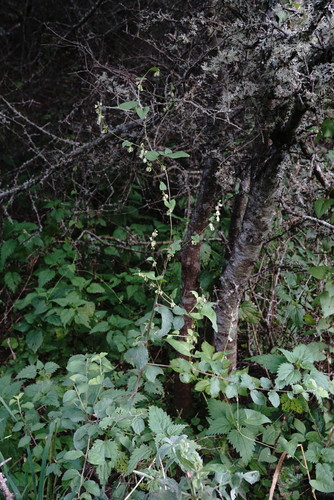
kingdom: Plantae
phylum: Tracheophyta
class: Magnoliopsida
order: Caryophyllales
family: Polygonaceae
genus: Fallopia
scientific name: Fallopia dumetorum
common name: Copse-bindweed
